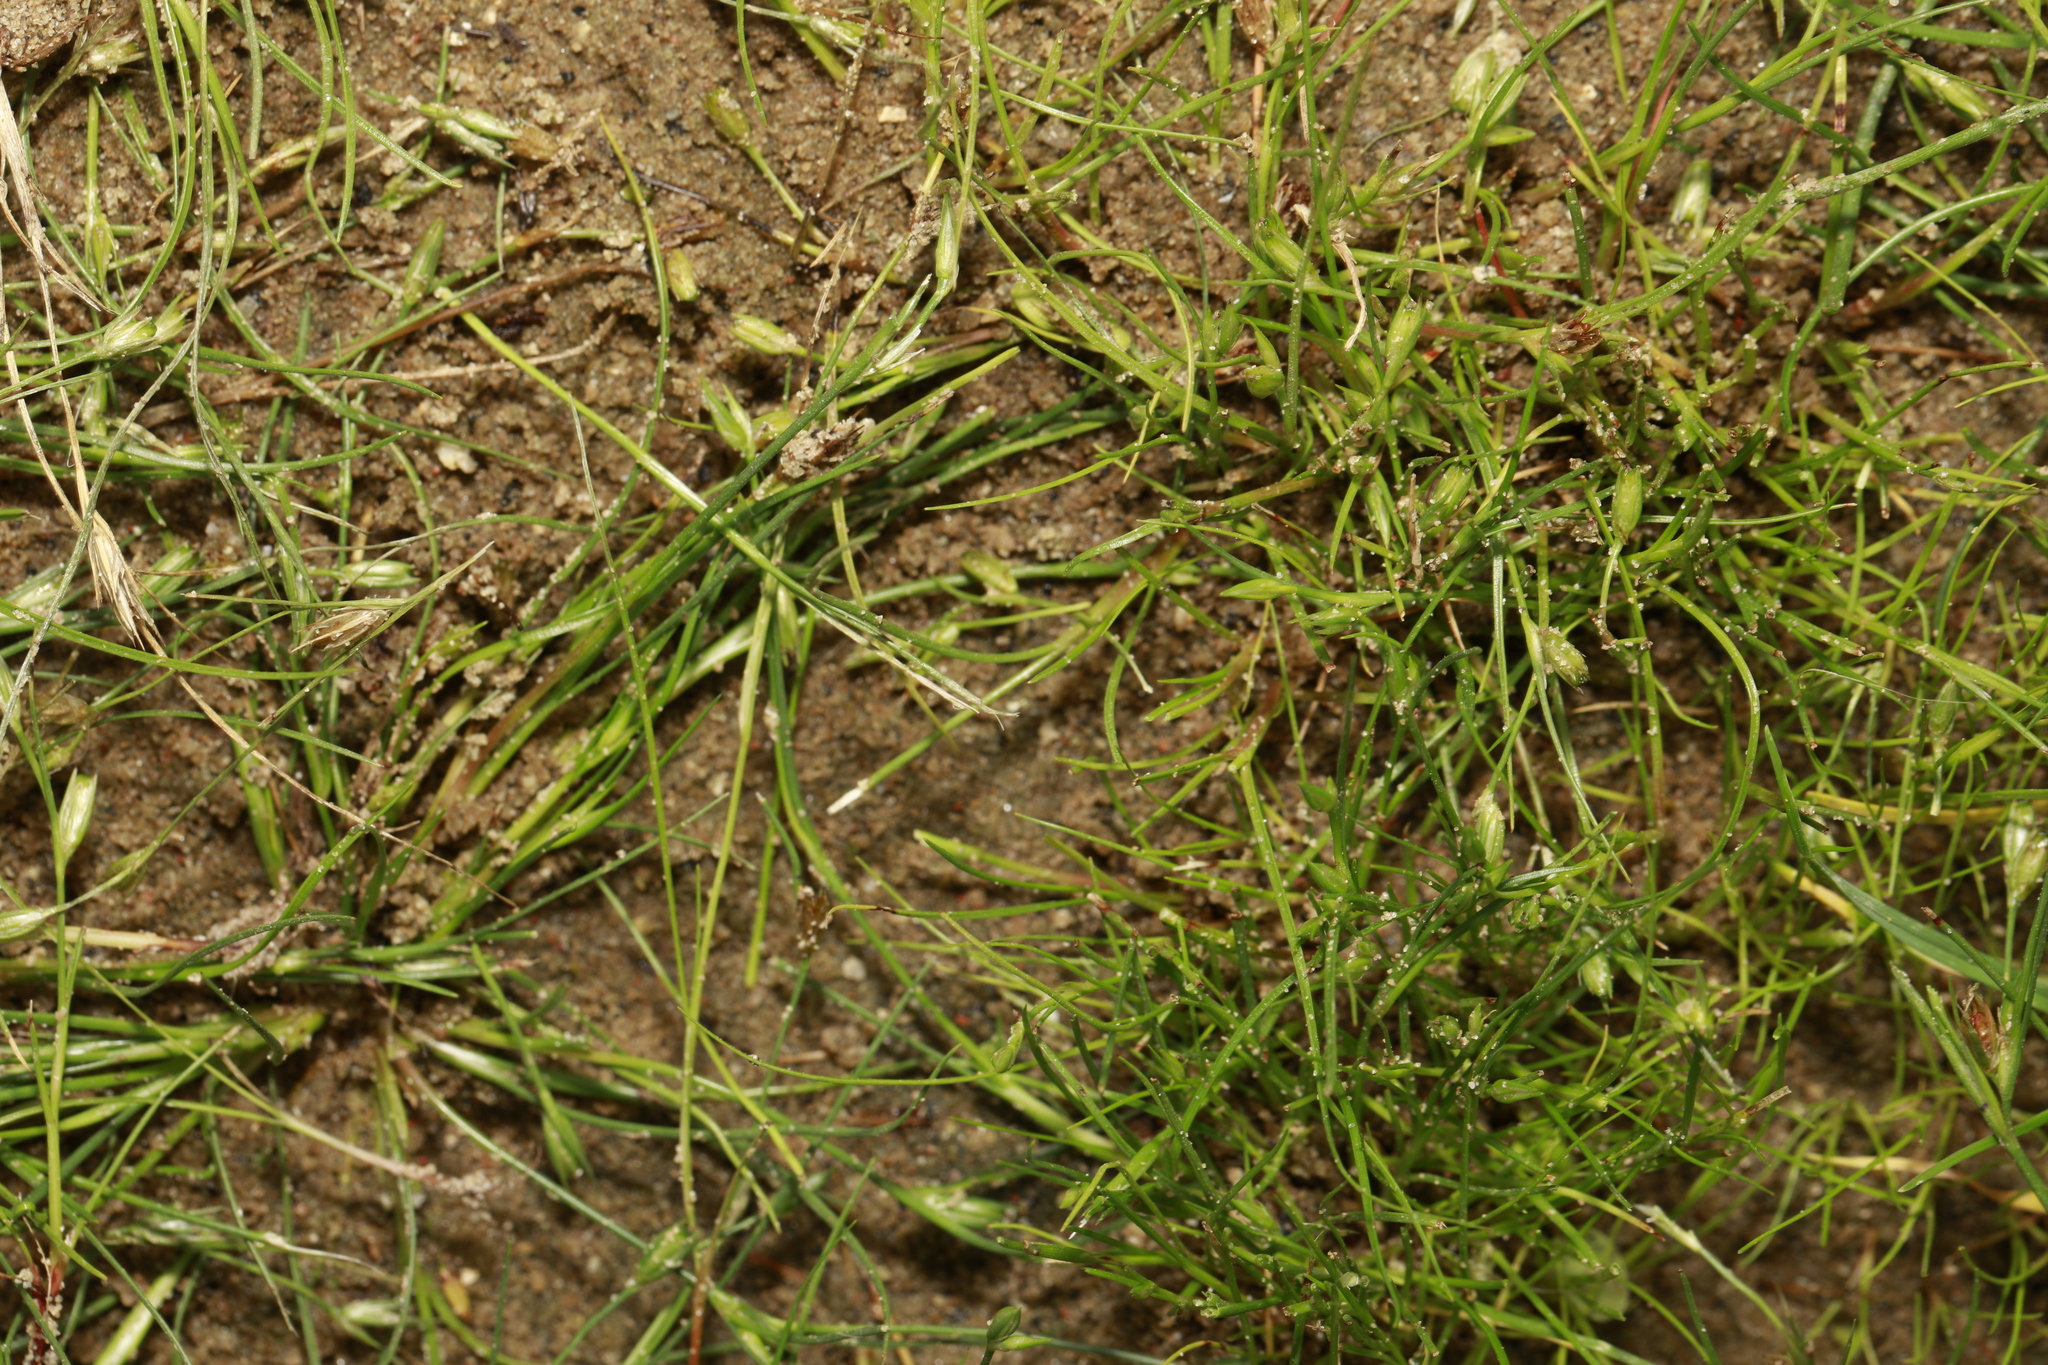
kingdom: Plantae
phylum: Tracheophyta
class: Liliopsida
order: Poales
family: Juncaceae
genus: Juncus
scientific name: Juncus bufonius
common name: Toad rush
